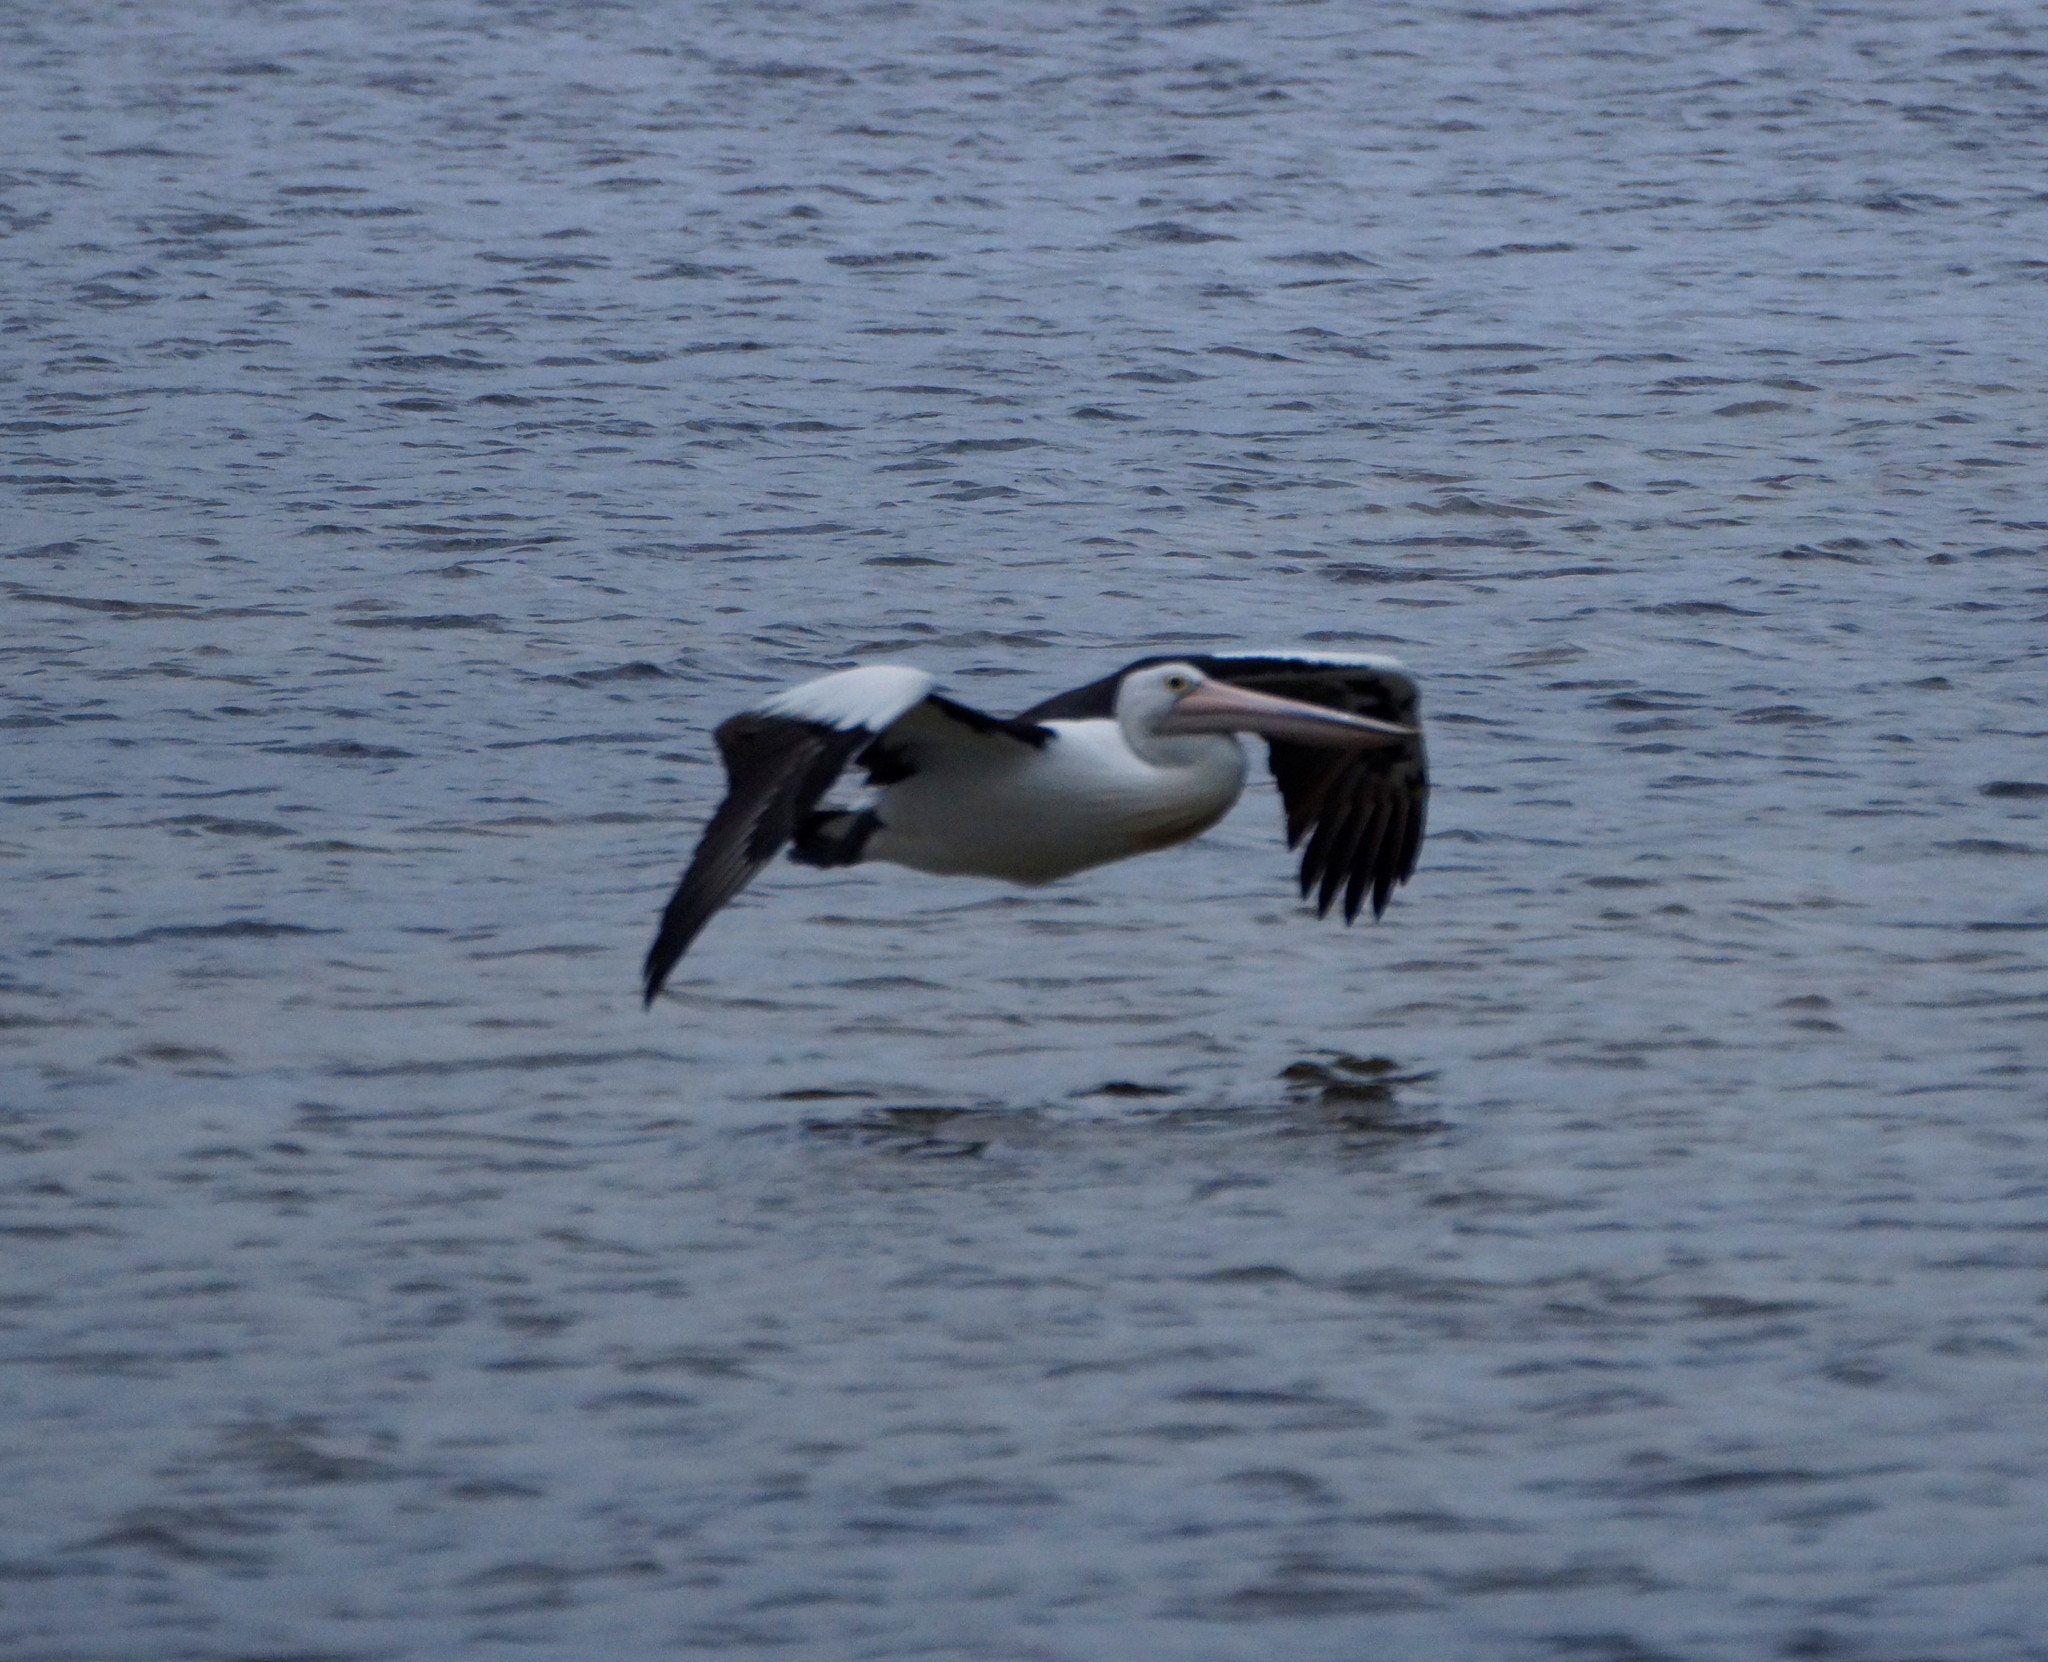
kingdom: Animalia
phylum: Chordata
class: Aves
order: Pelecaniformes
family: Pelecanidae
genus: Pelecanus
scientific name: Pelecanus conspicillatus
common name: Australian pelican
